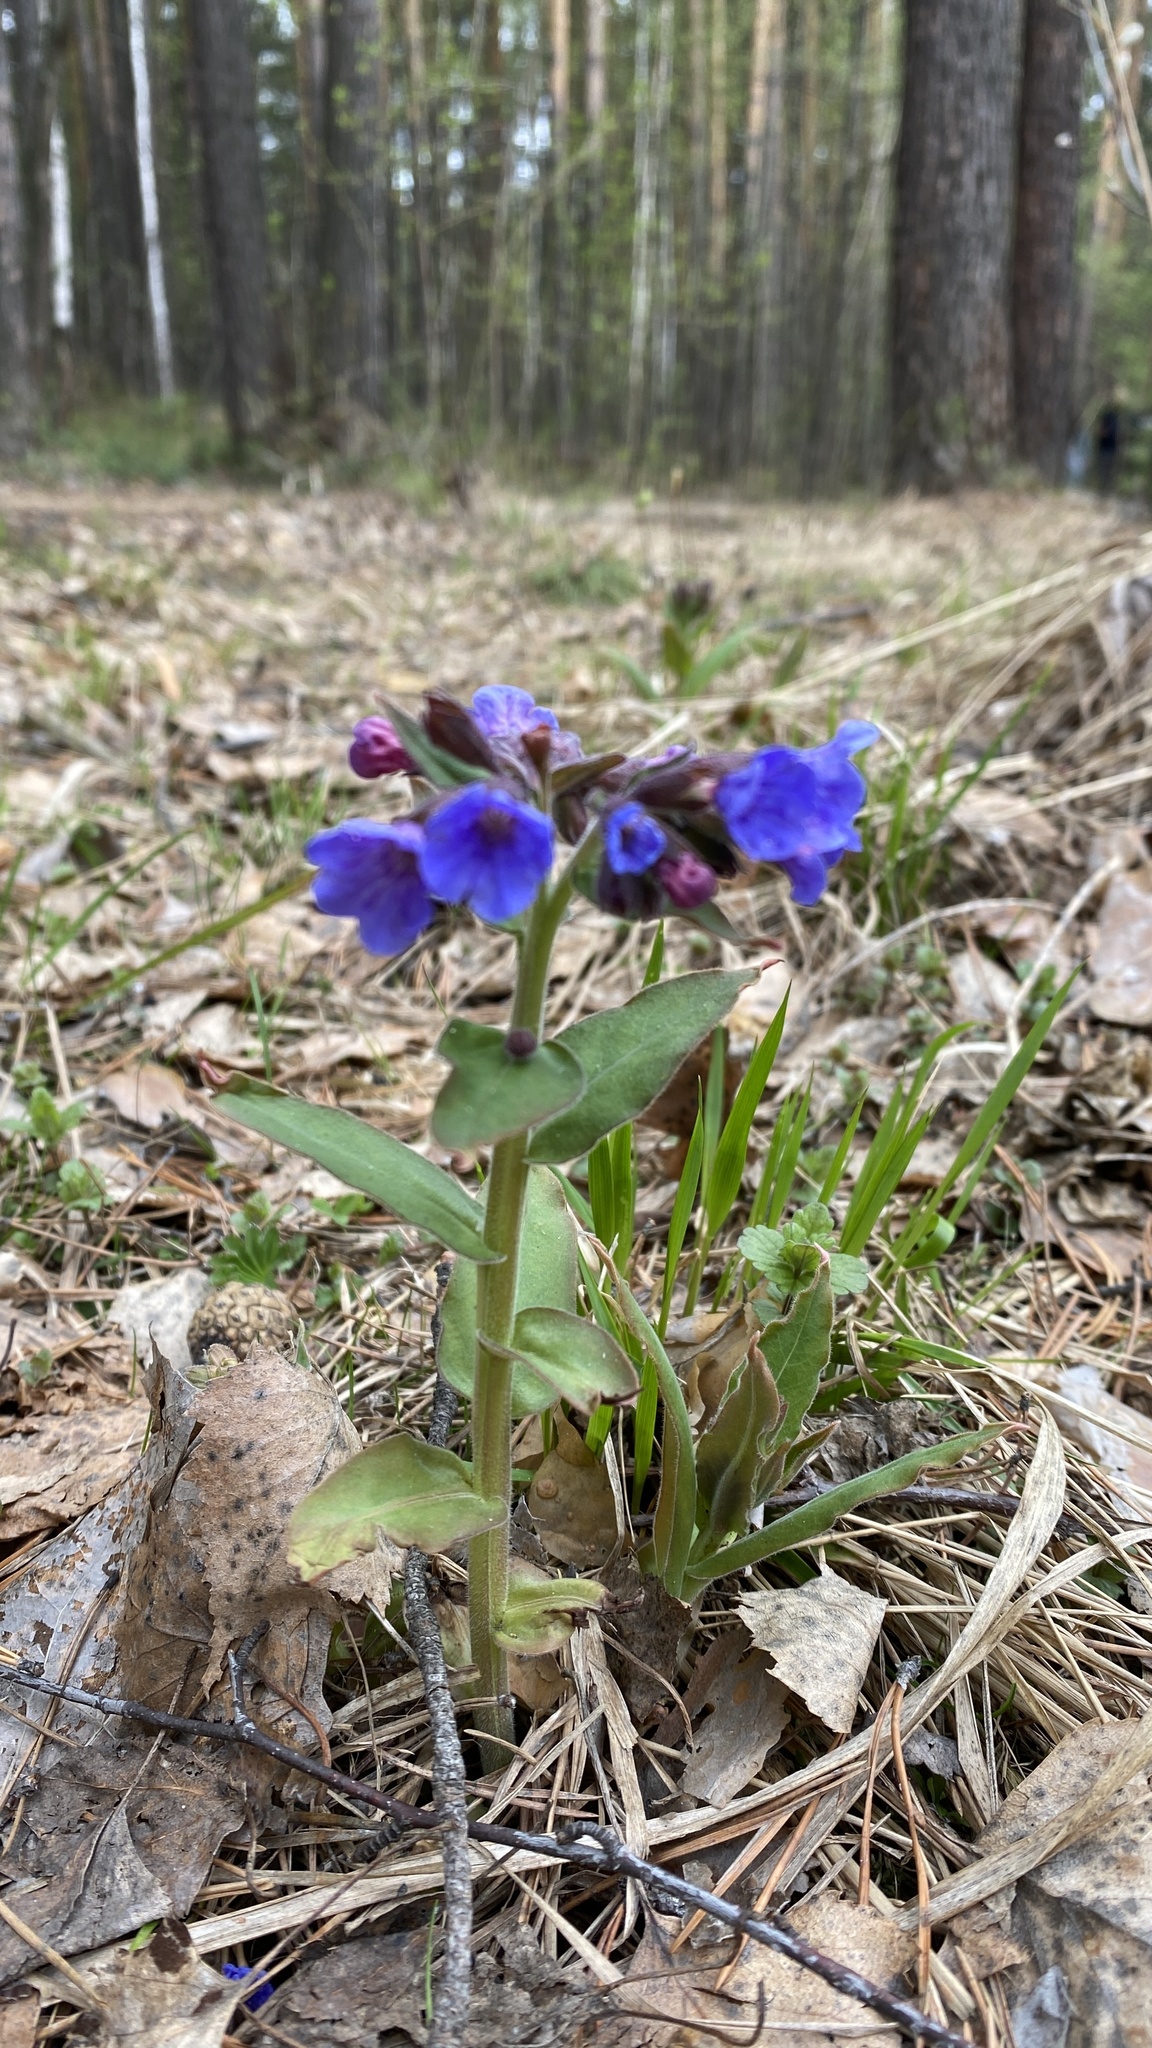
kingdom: Plantae
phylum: Tracheophyta
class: Magnoliopsida
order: Boraginales
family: Boraginaceae
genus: Pulmonaria
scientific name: Pulmonaria mollis
